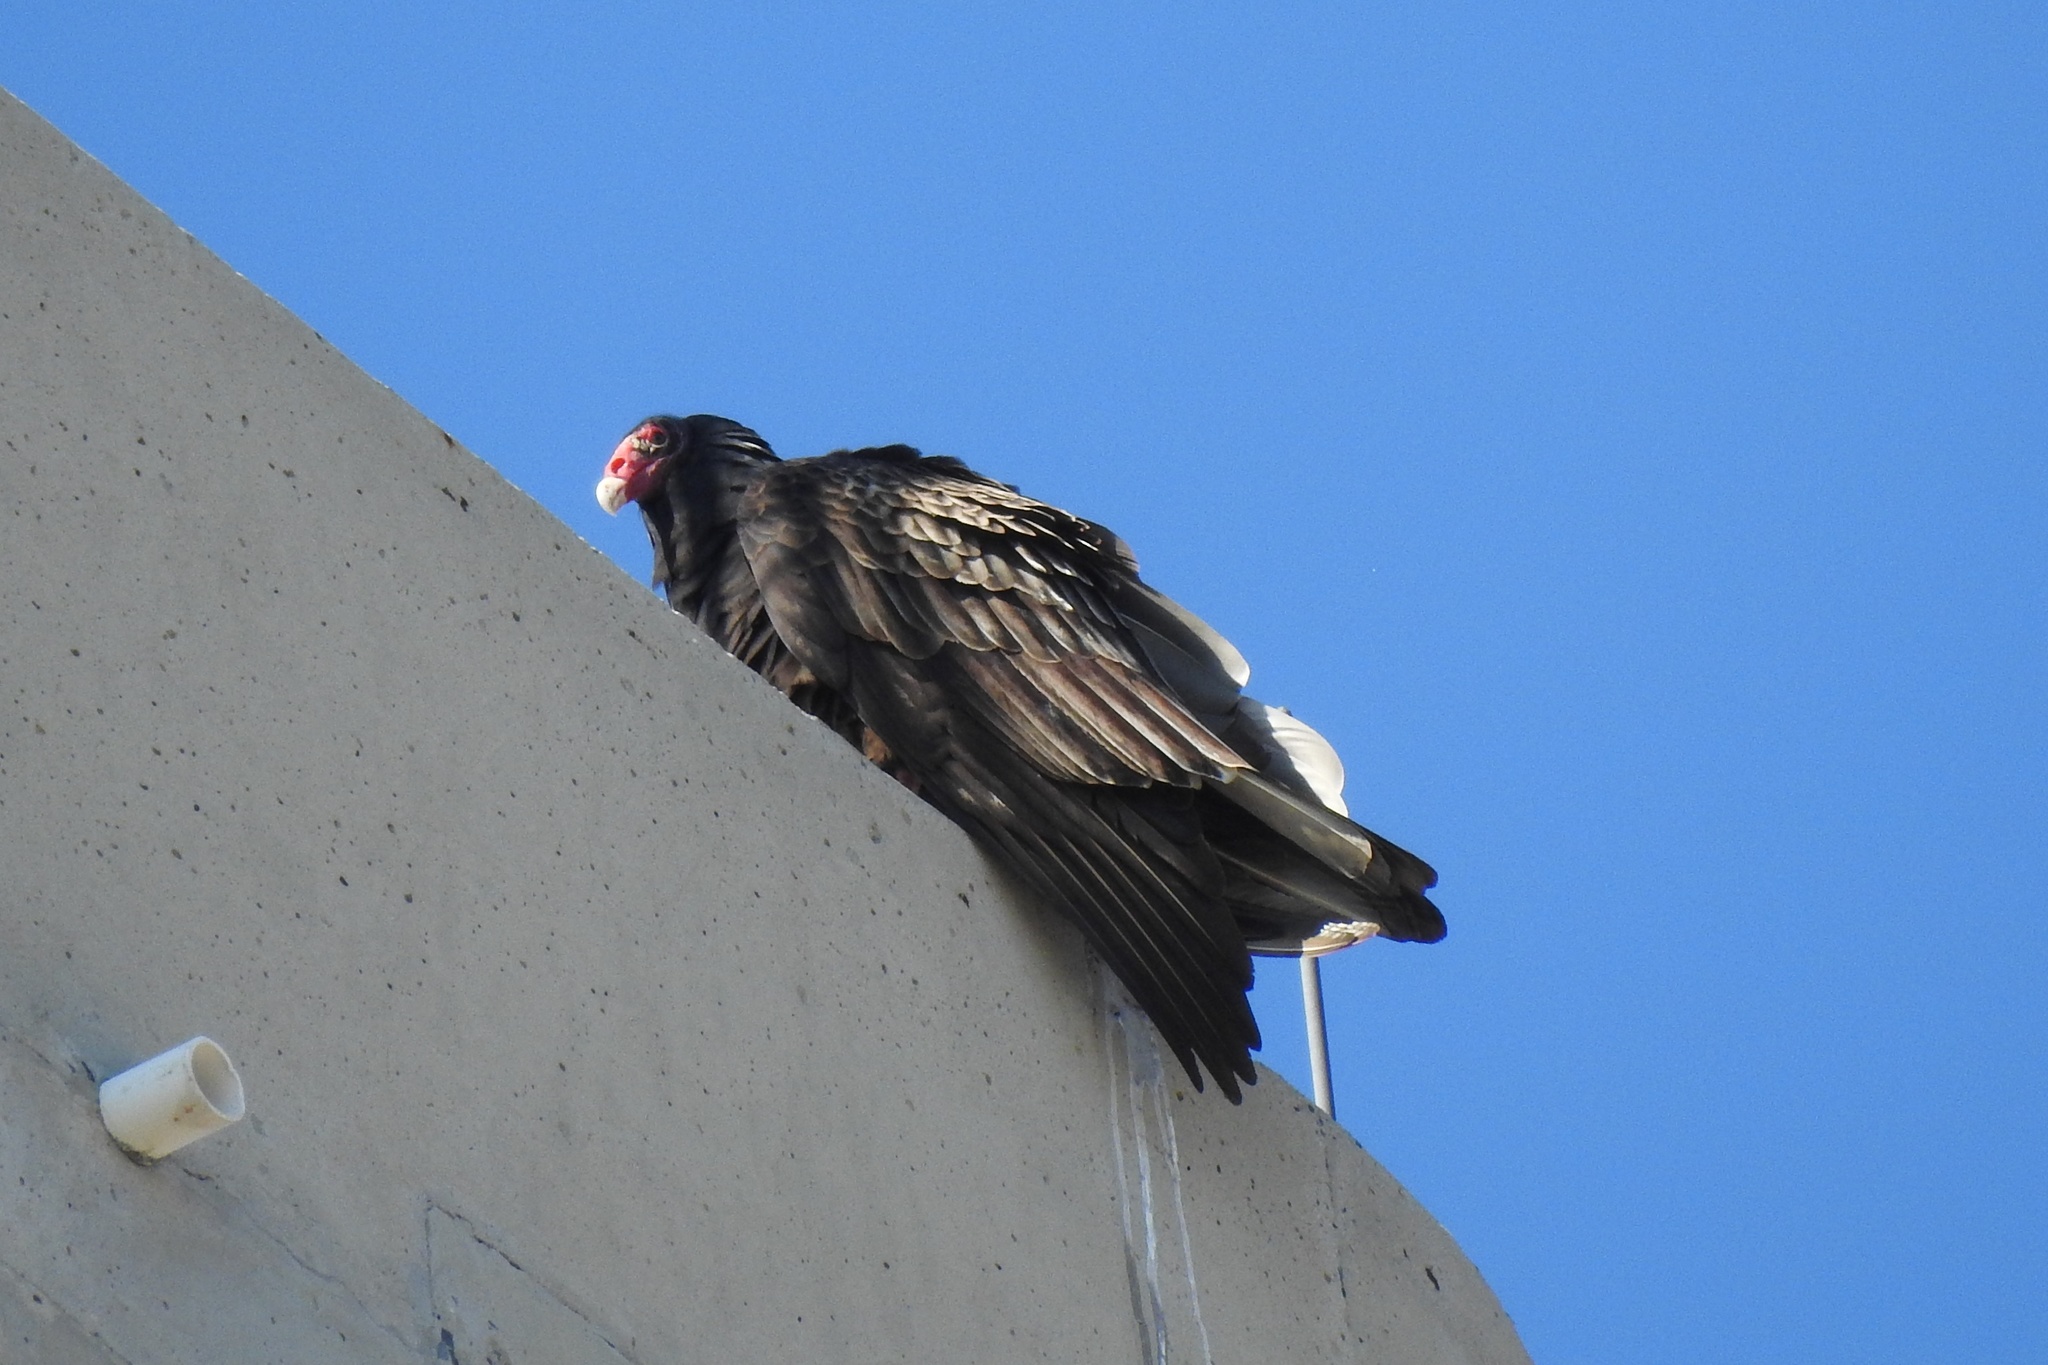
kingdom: Animalia
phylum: Chordata
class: Aves
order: Accipitriformes
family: Cathartidae
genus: Cathartes
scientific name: Cathartes aura
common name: Turkey vulture
